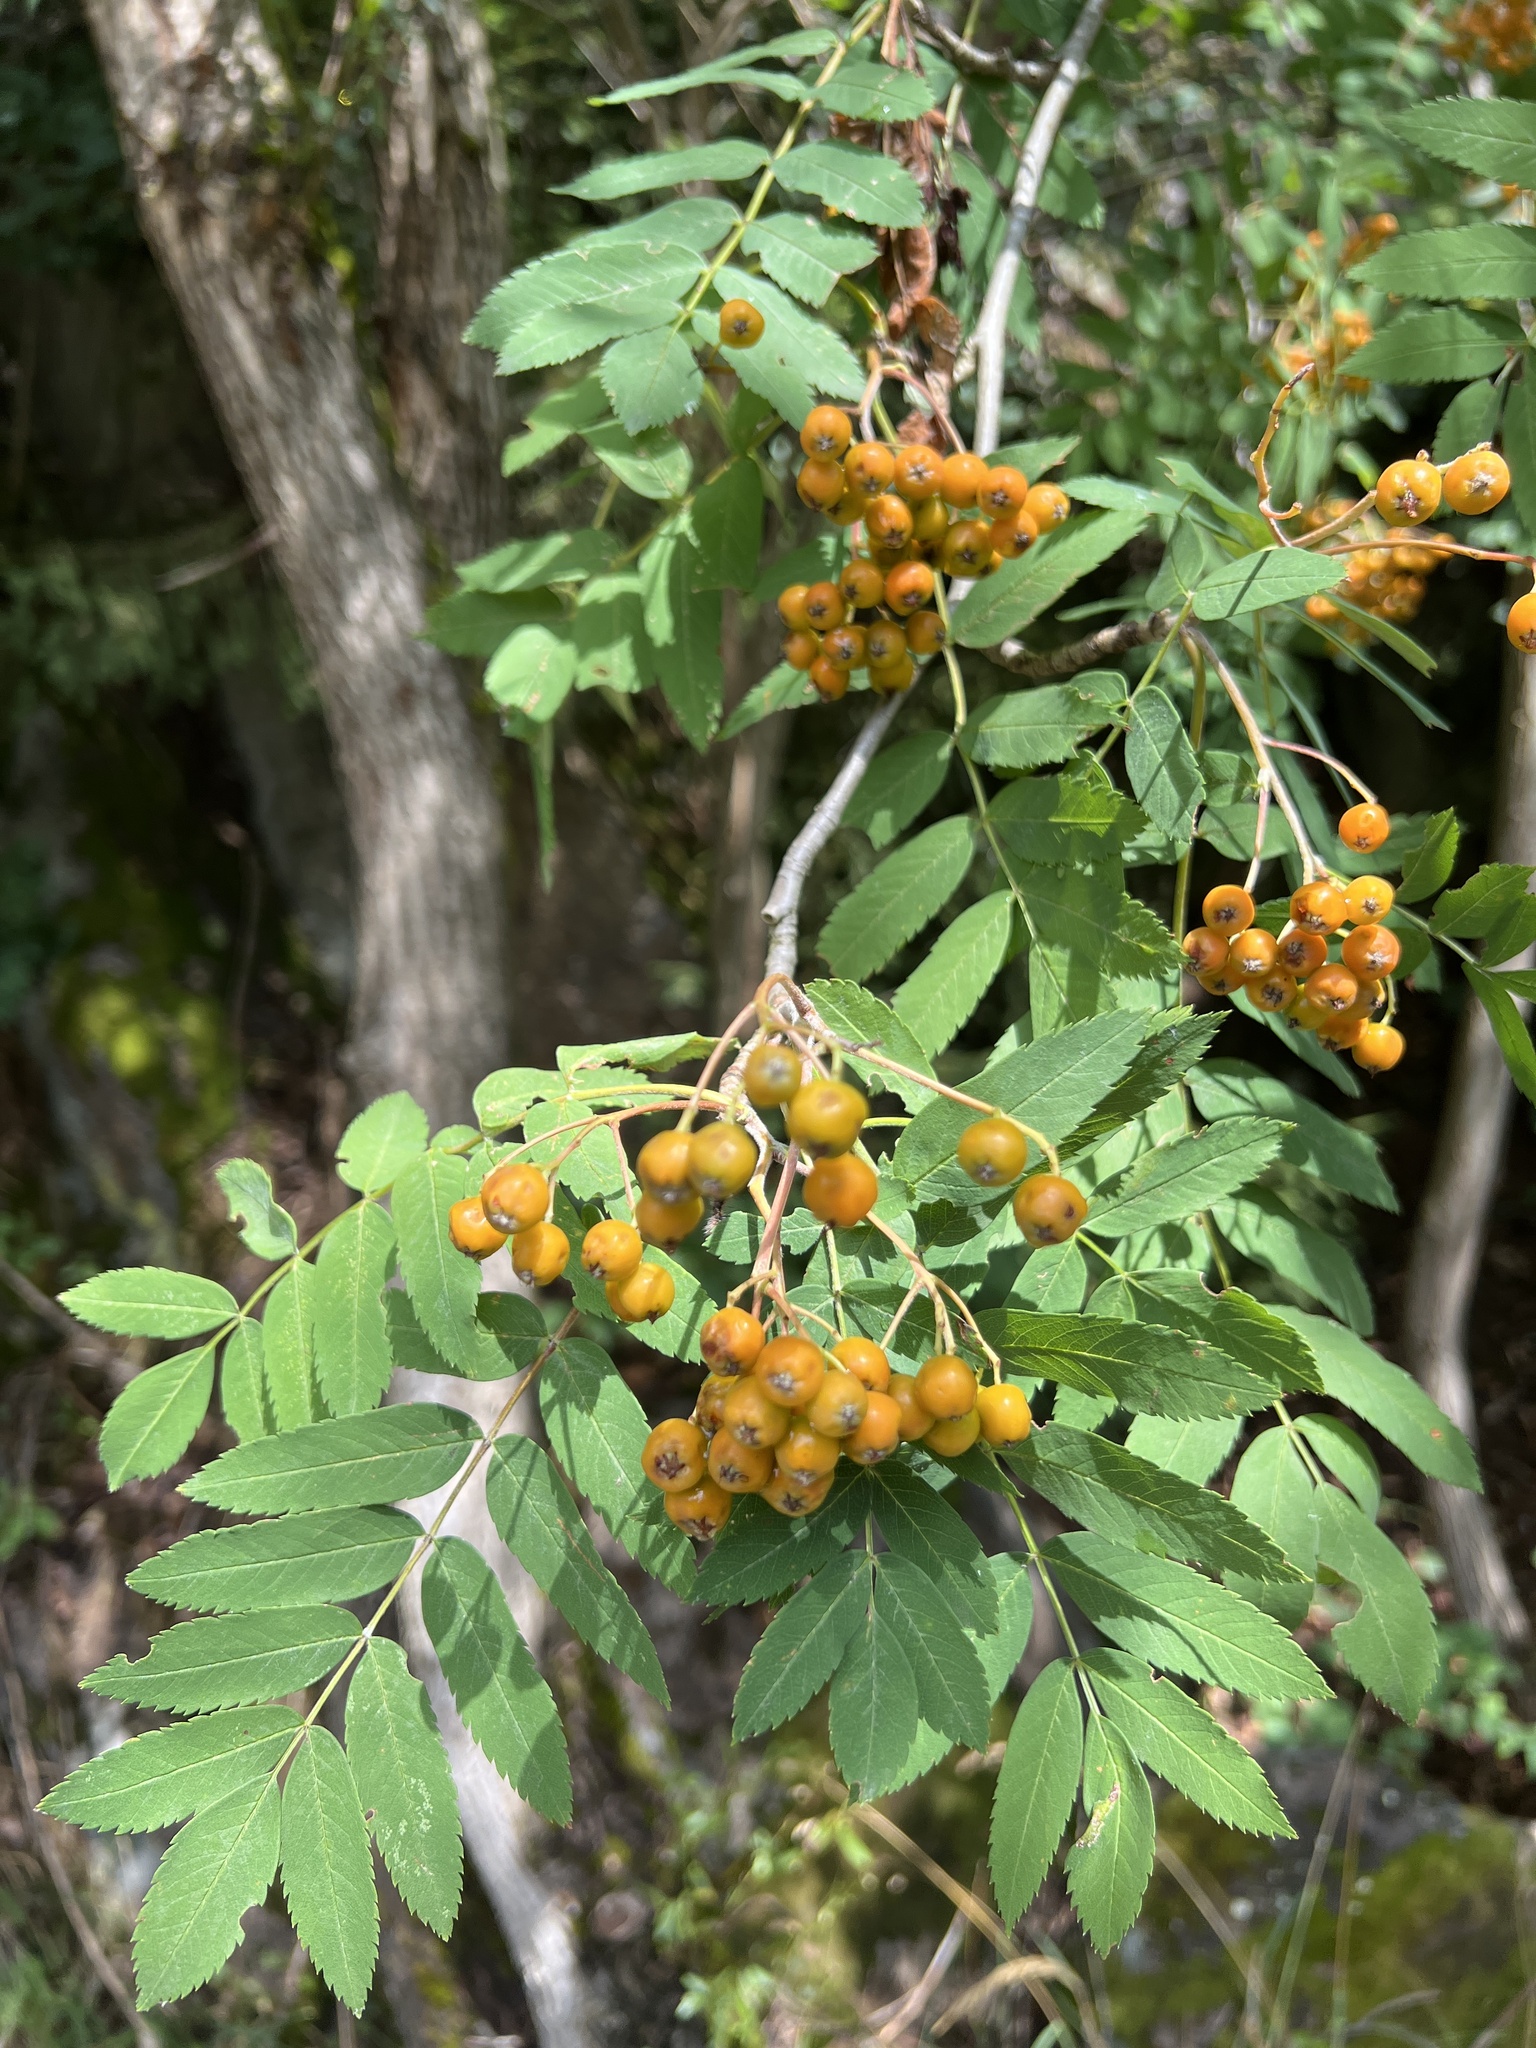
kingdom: Plantae
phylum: Tracheophyta
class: Magnoliopsida
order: Rosales
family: Rosaceae
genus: Sorbus
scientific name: Sorbus aucuparia
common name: Rowan
